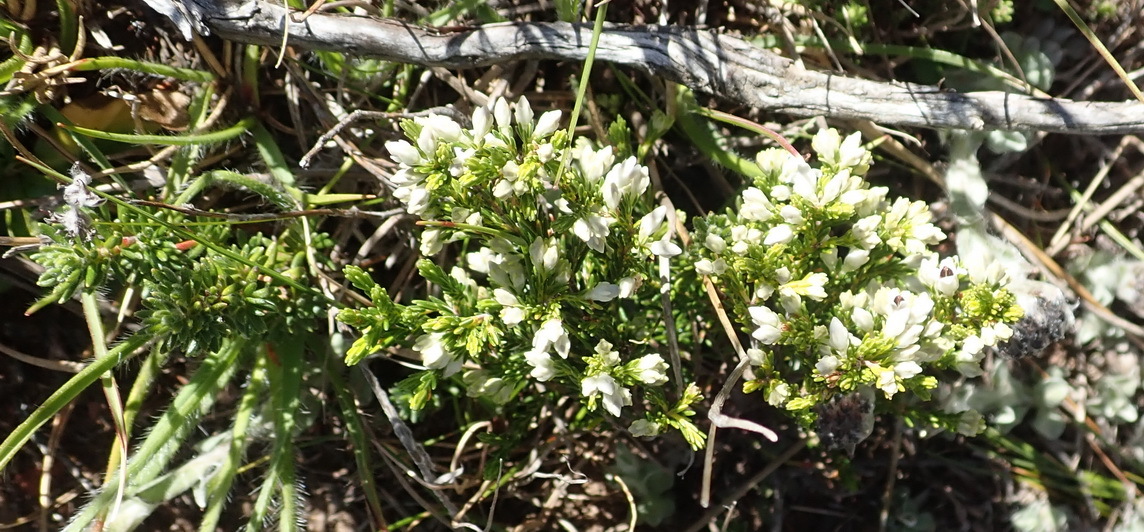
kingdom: Plantae
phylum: Tracheophyta
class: Magnoliopsida
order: Ericales
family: Ericaceae
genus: Erica
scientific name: Erica calycina
